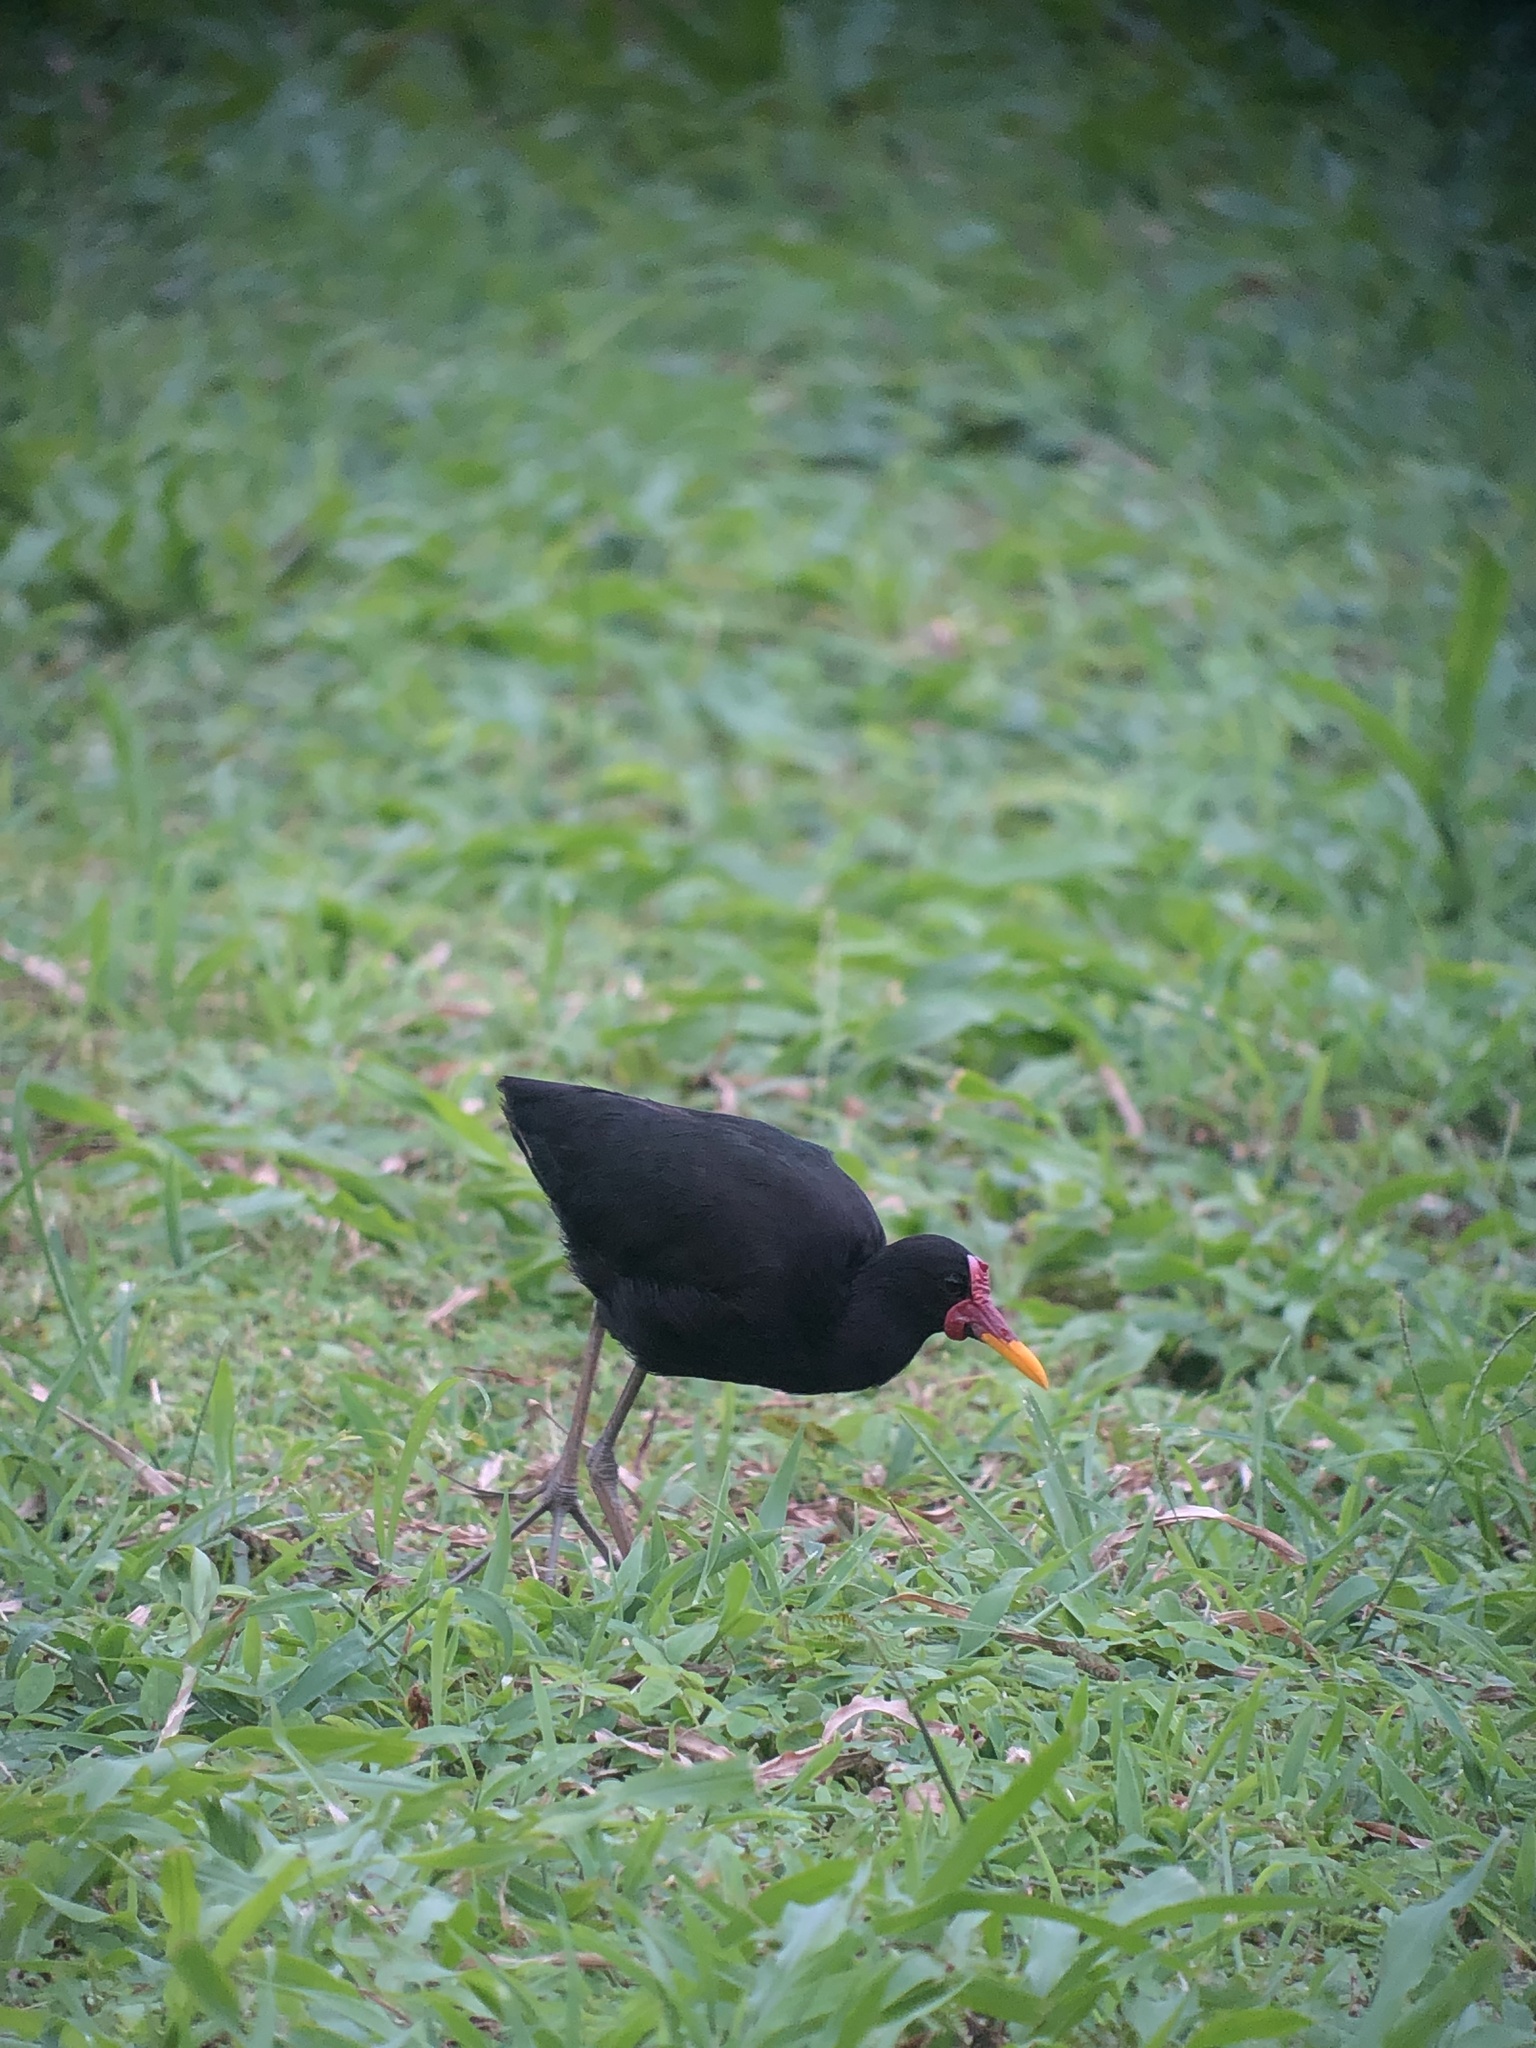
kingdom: Animalia
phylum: Chordata
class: Aves
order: Charadriiformes
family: Jacanidae
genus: Jacana
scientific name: Jacana jacana
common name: Wattled jacana
